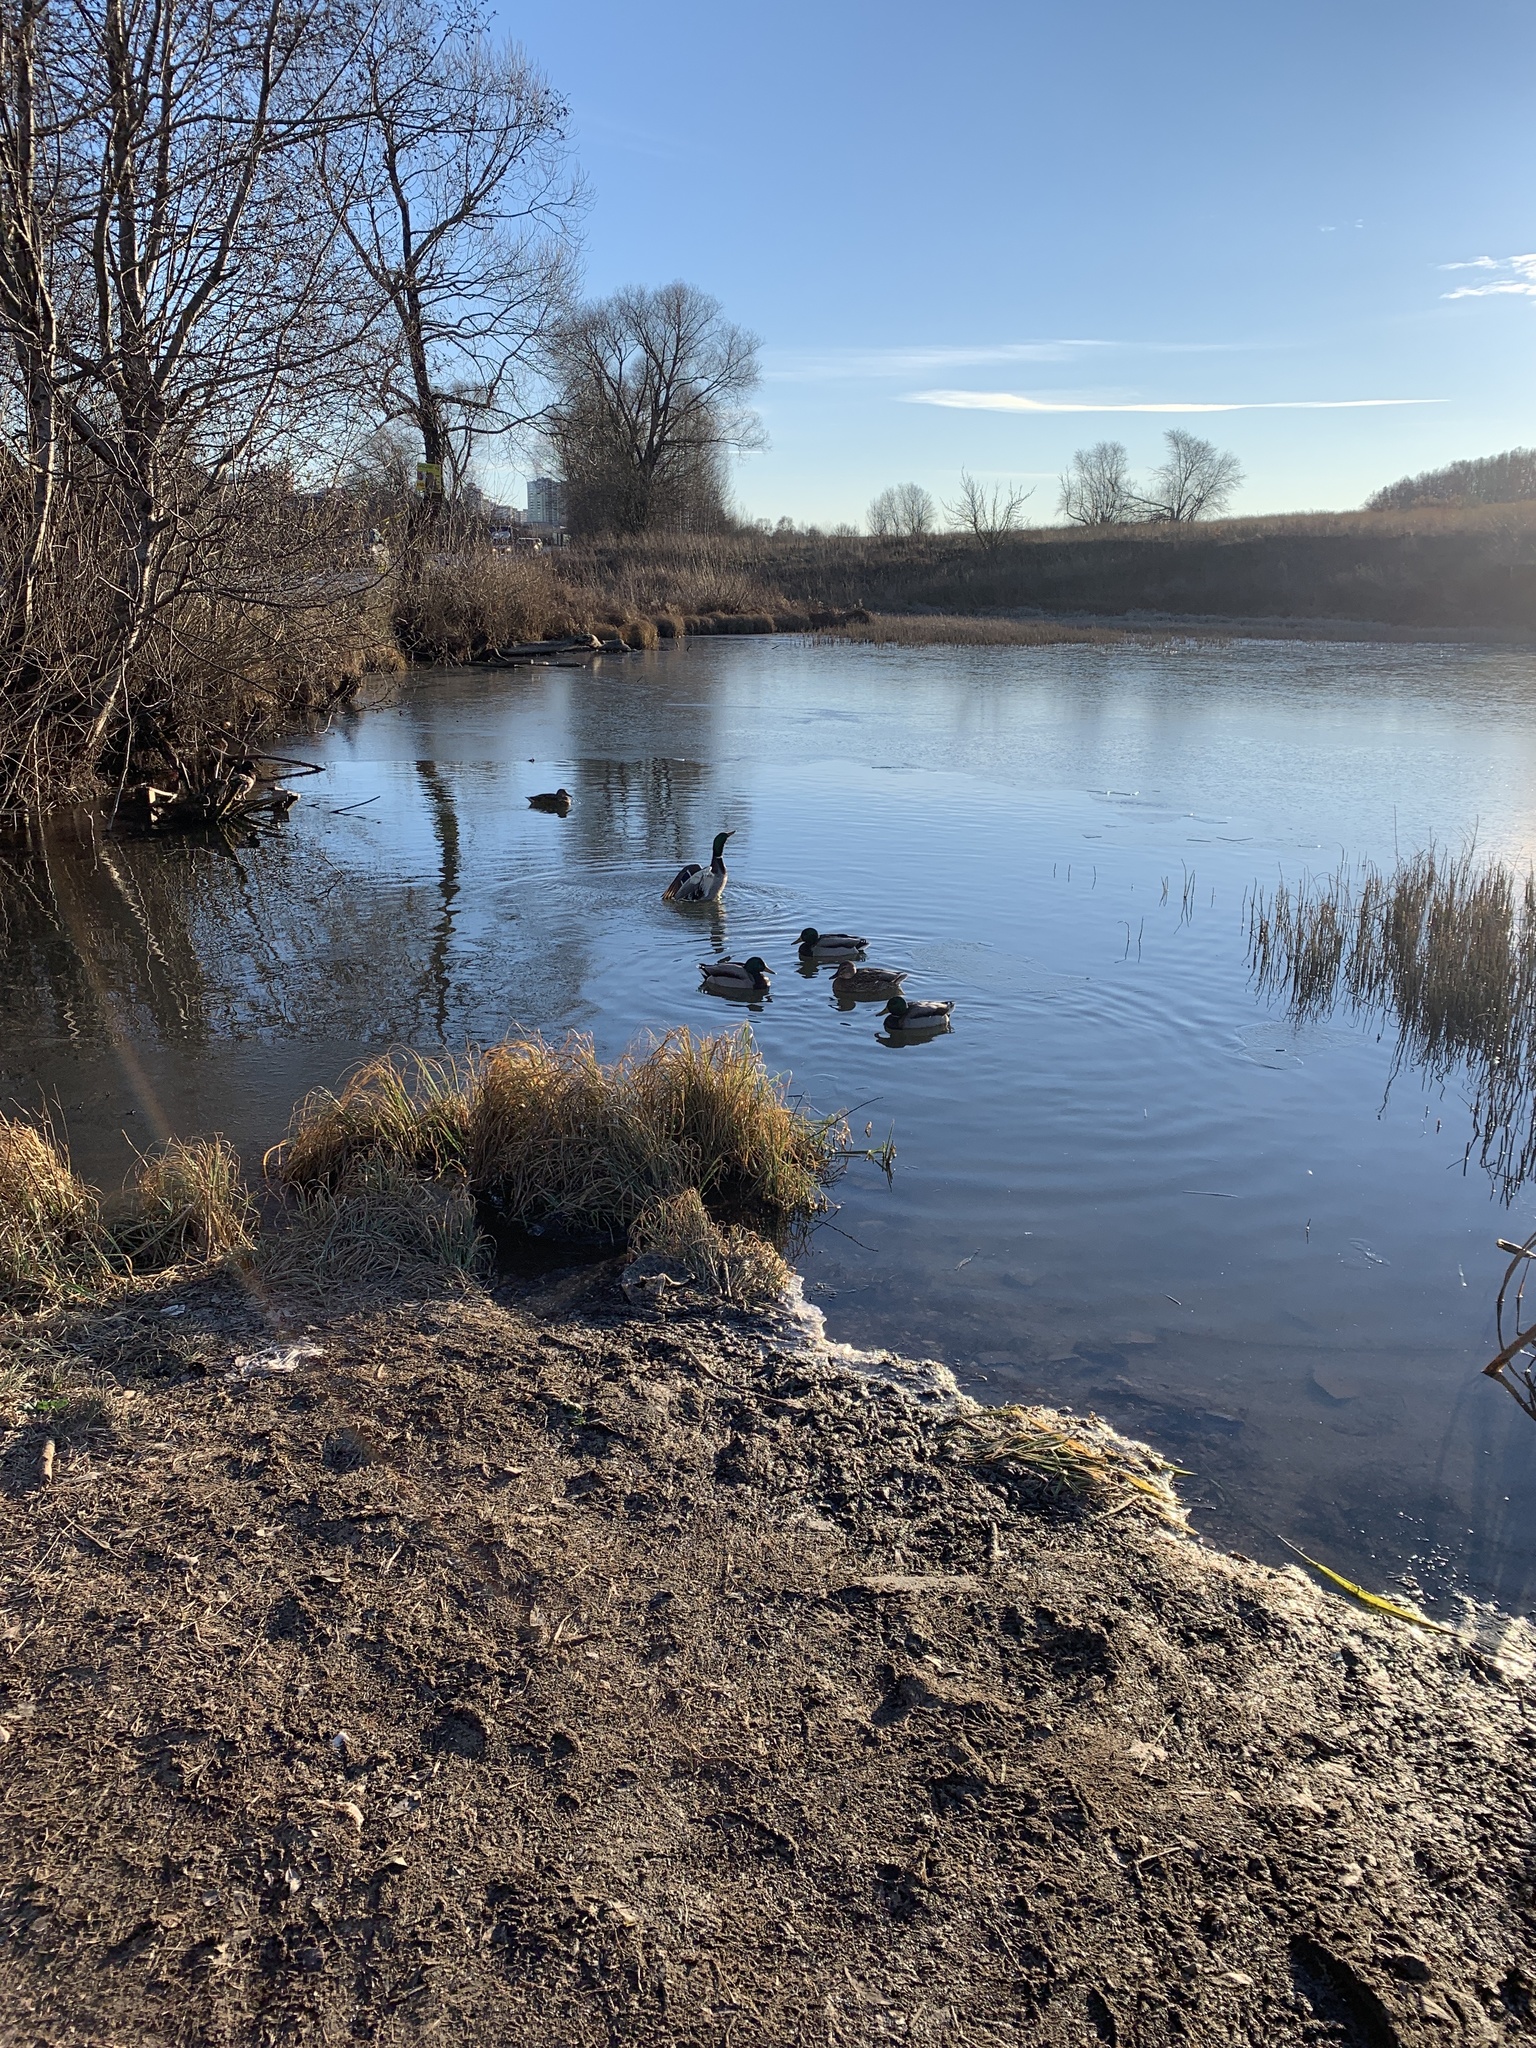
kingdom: Animalia
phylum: Chordata
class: Aves
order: Anseriformes
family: Anatidae
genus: Anas
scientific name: Anas platyrhynchos
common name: Mallard
